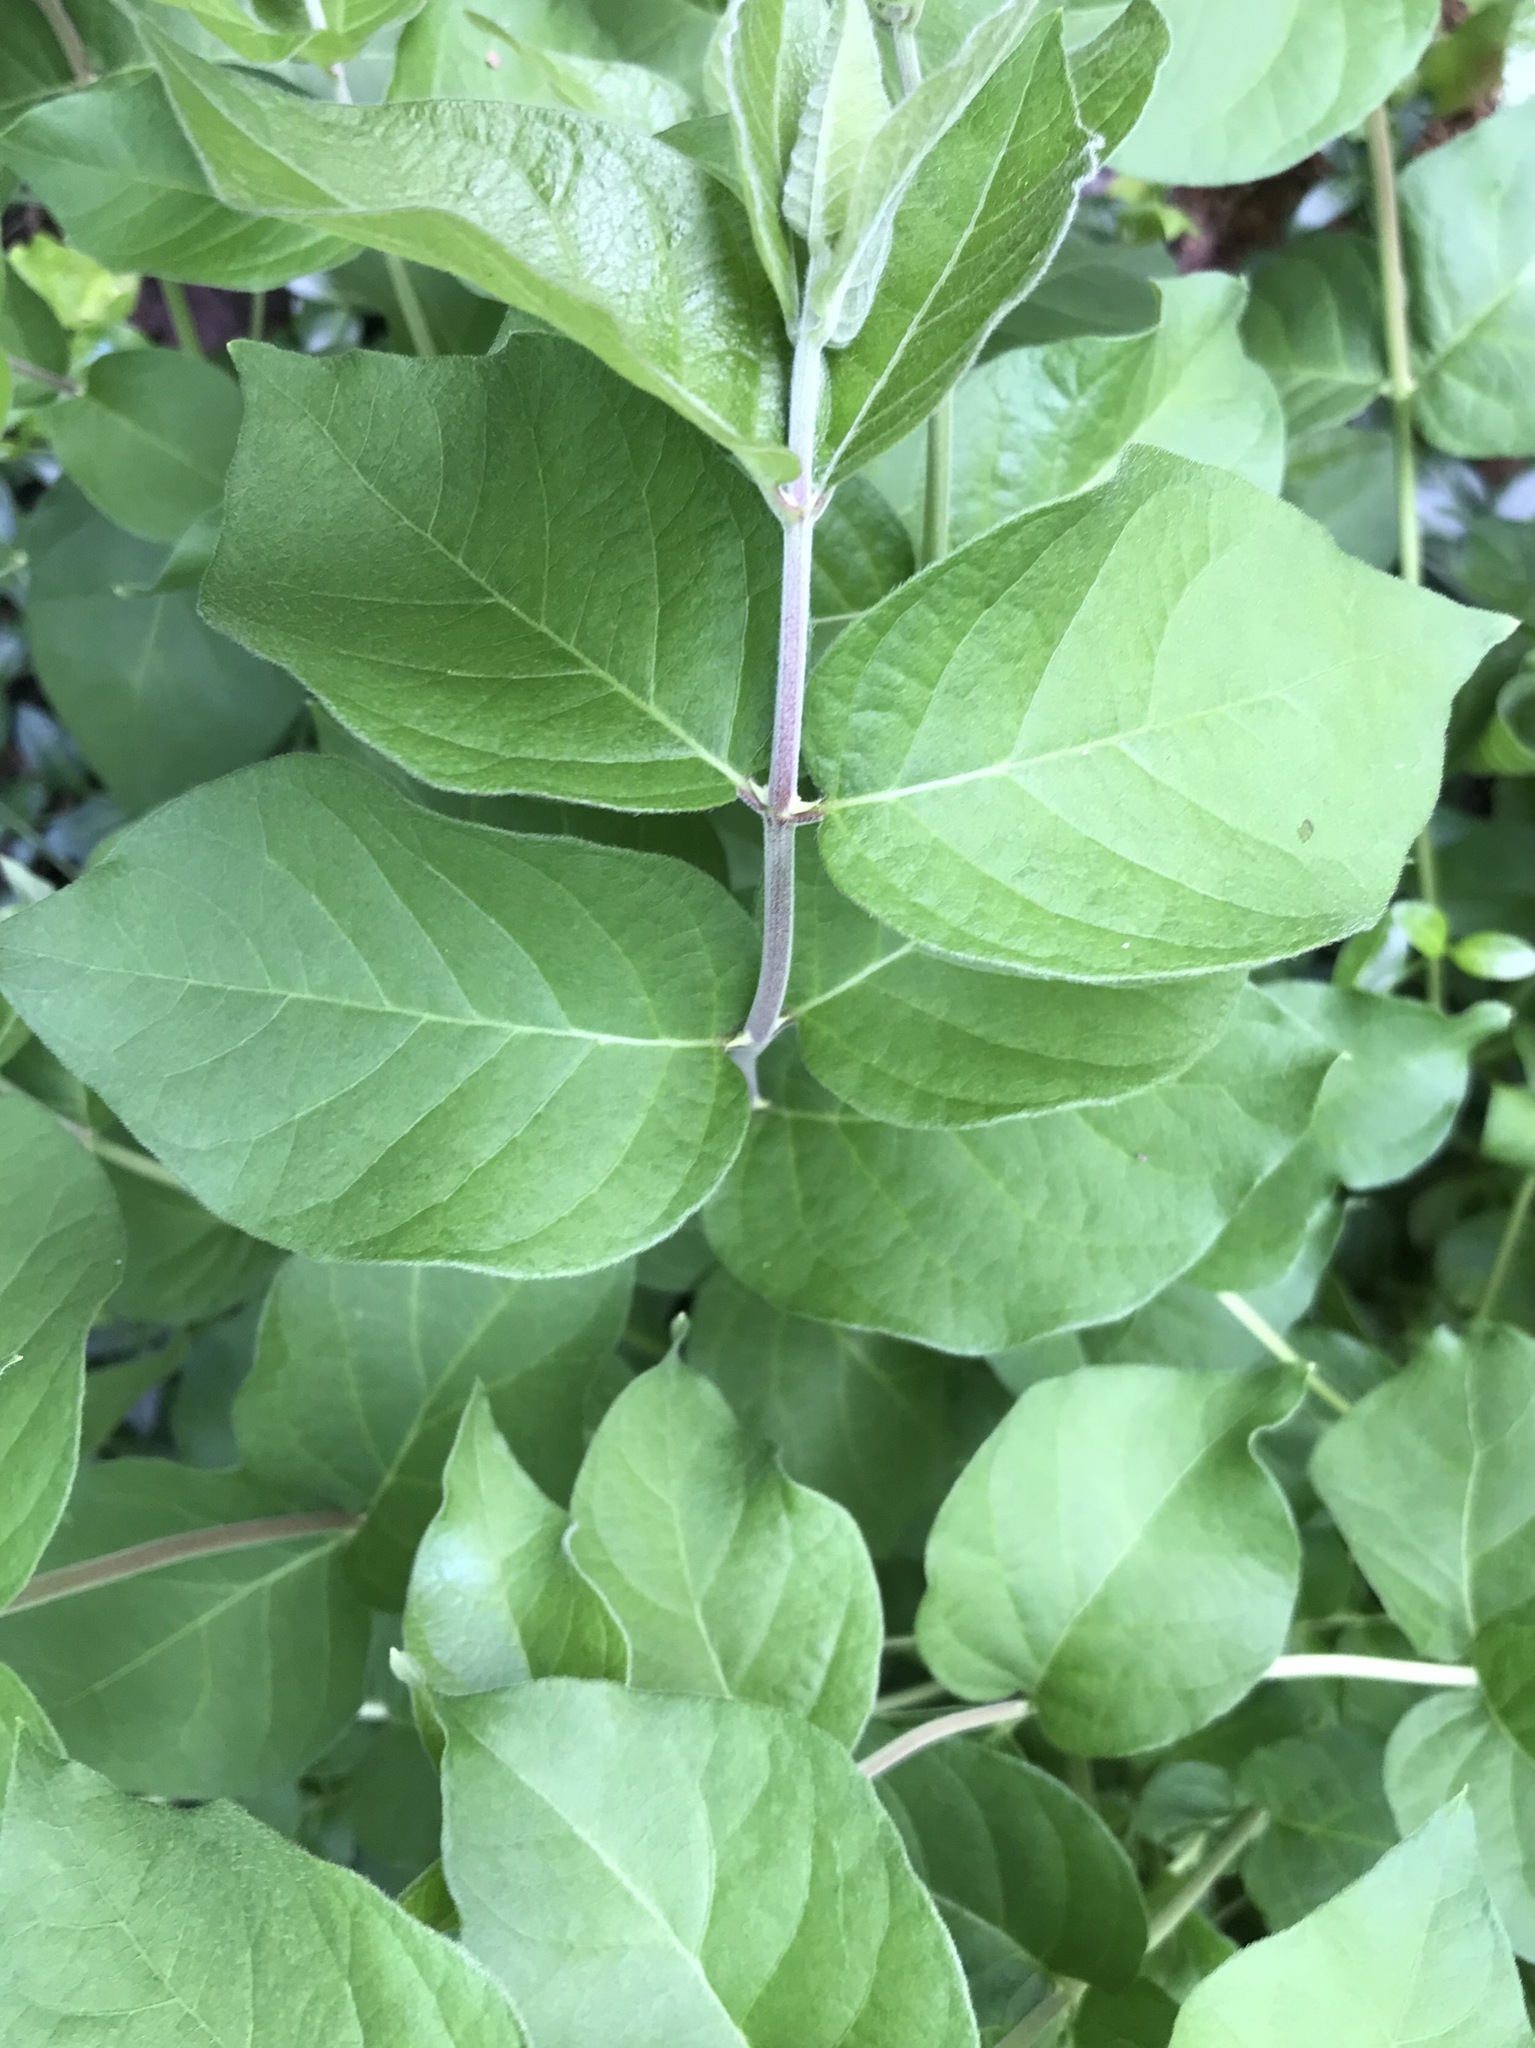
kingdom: Plantae
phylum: Tracheophyta
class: Magnoliopsida
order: Dipsacales
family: Caprifoliaceae
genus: Lonicera
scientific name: Lonicera maackii
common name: Amur honeysuckle
